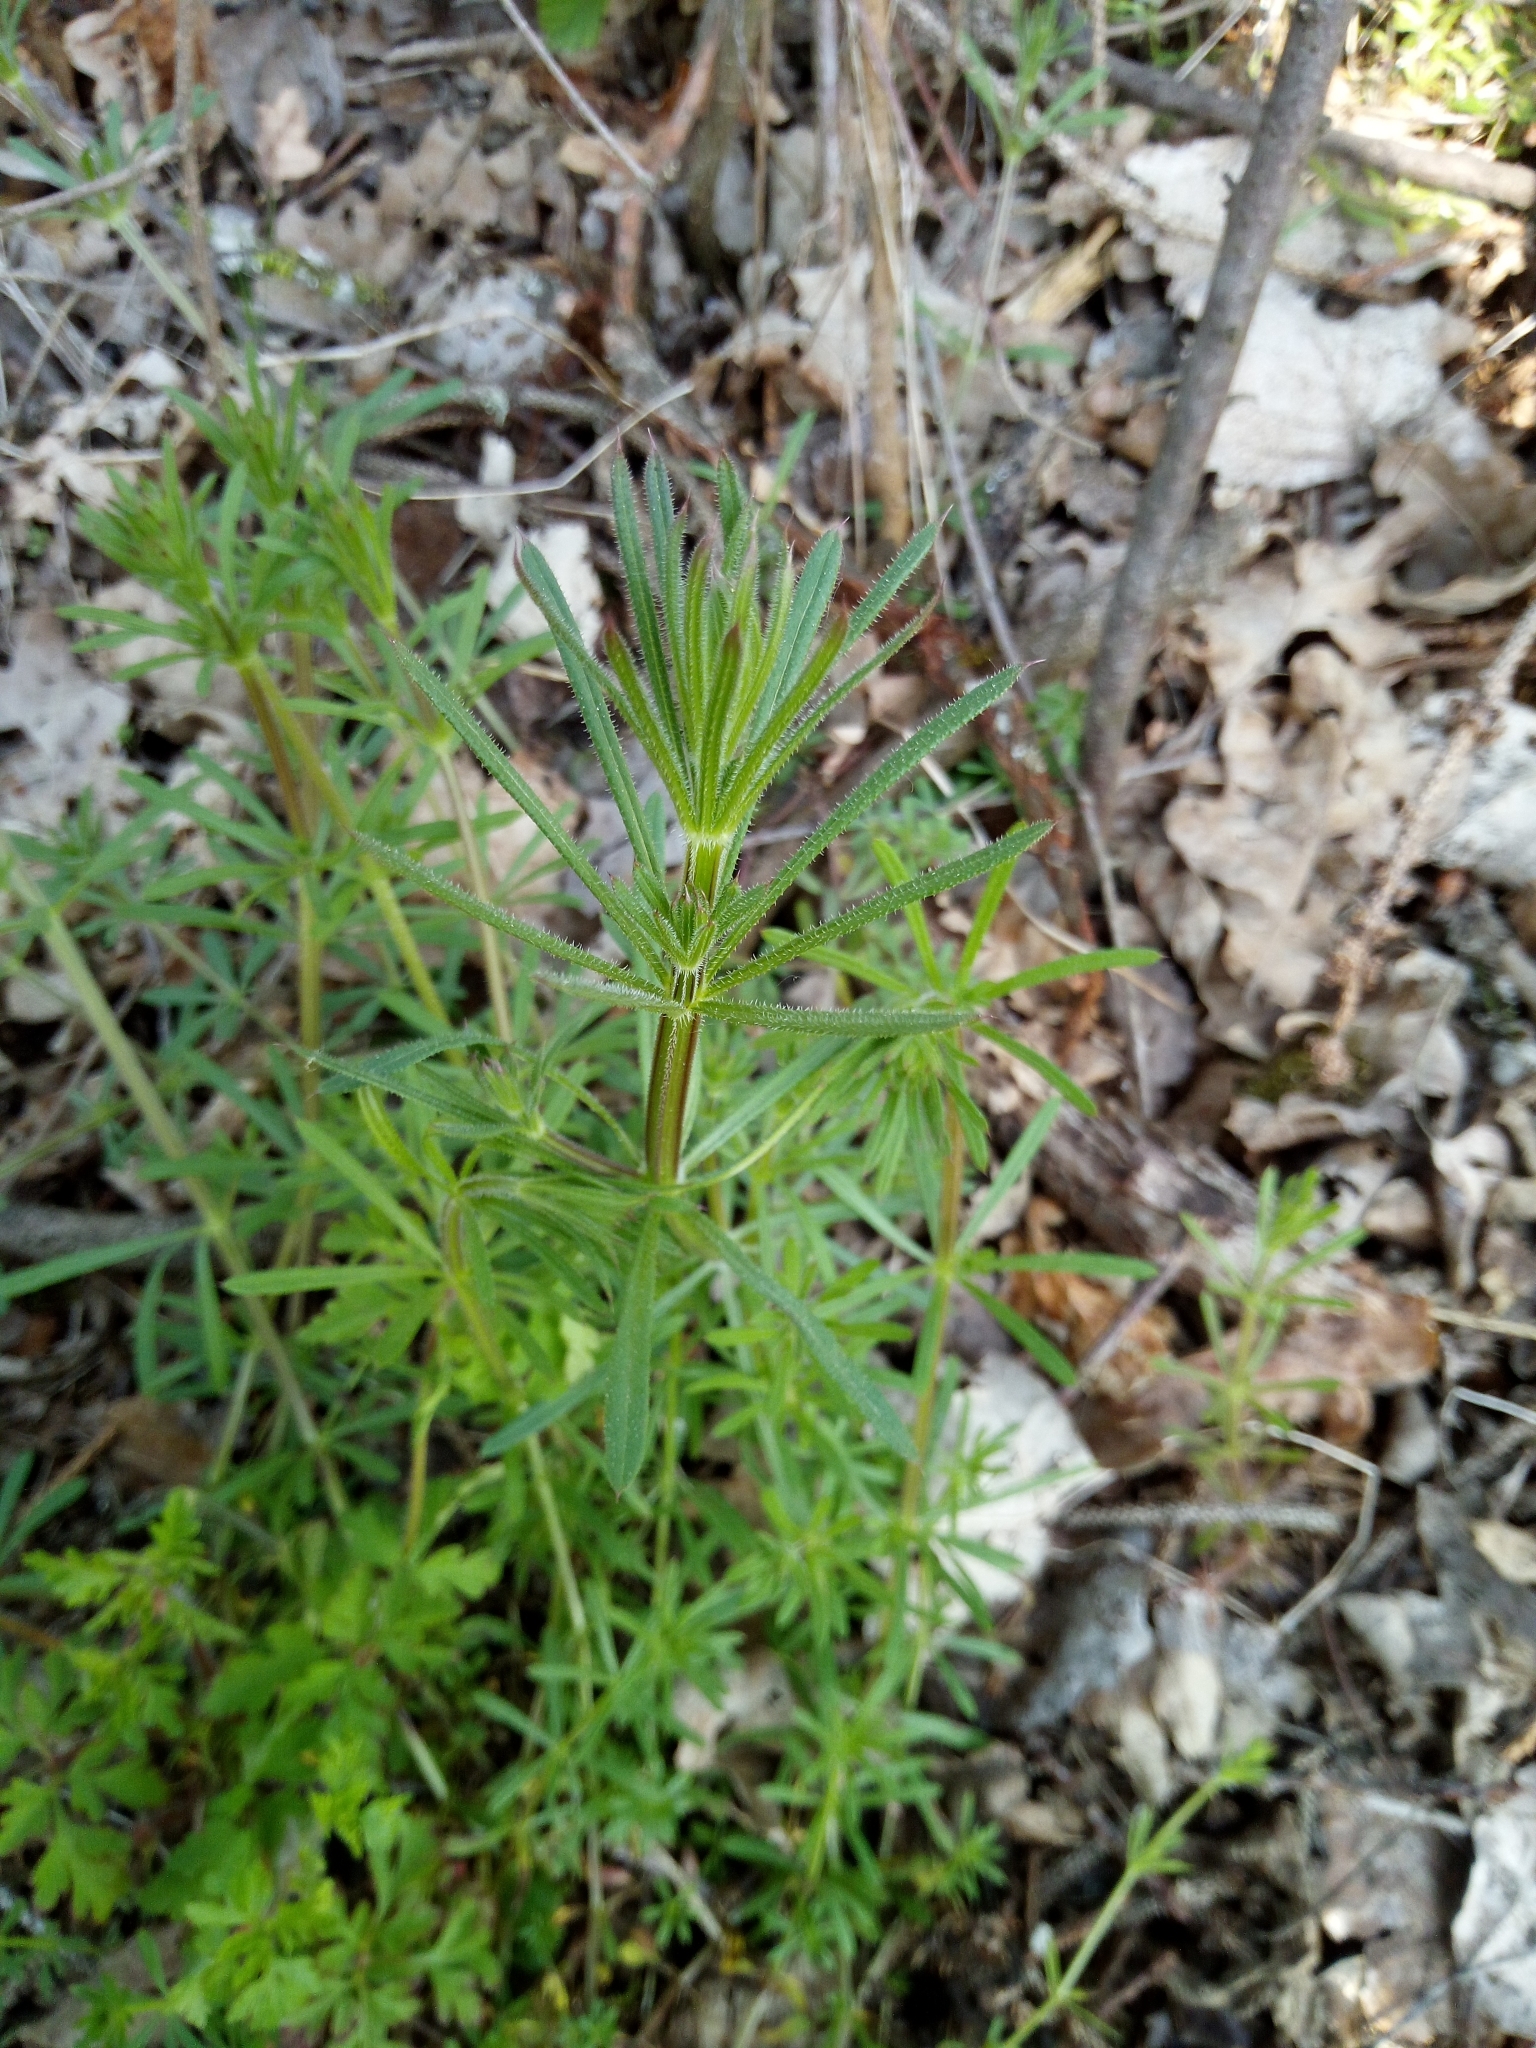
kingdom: Plantae
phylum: Tracheophyta
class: Magnoliopsida
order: Gentianales
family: Rubiaceae
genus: Galium
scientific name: Galium aparine
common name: Cleavers
